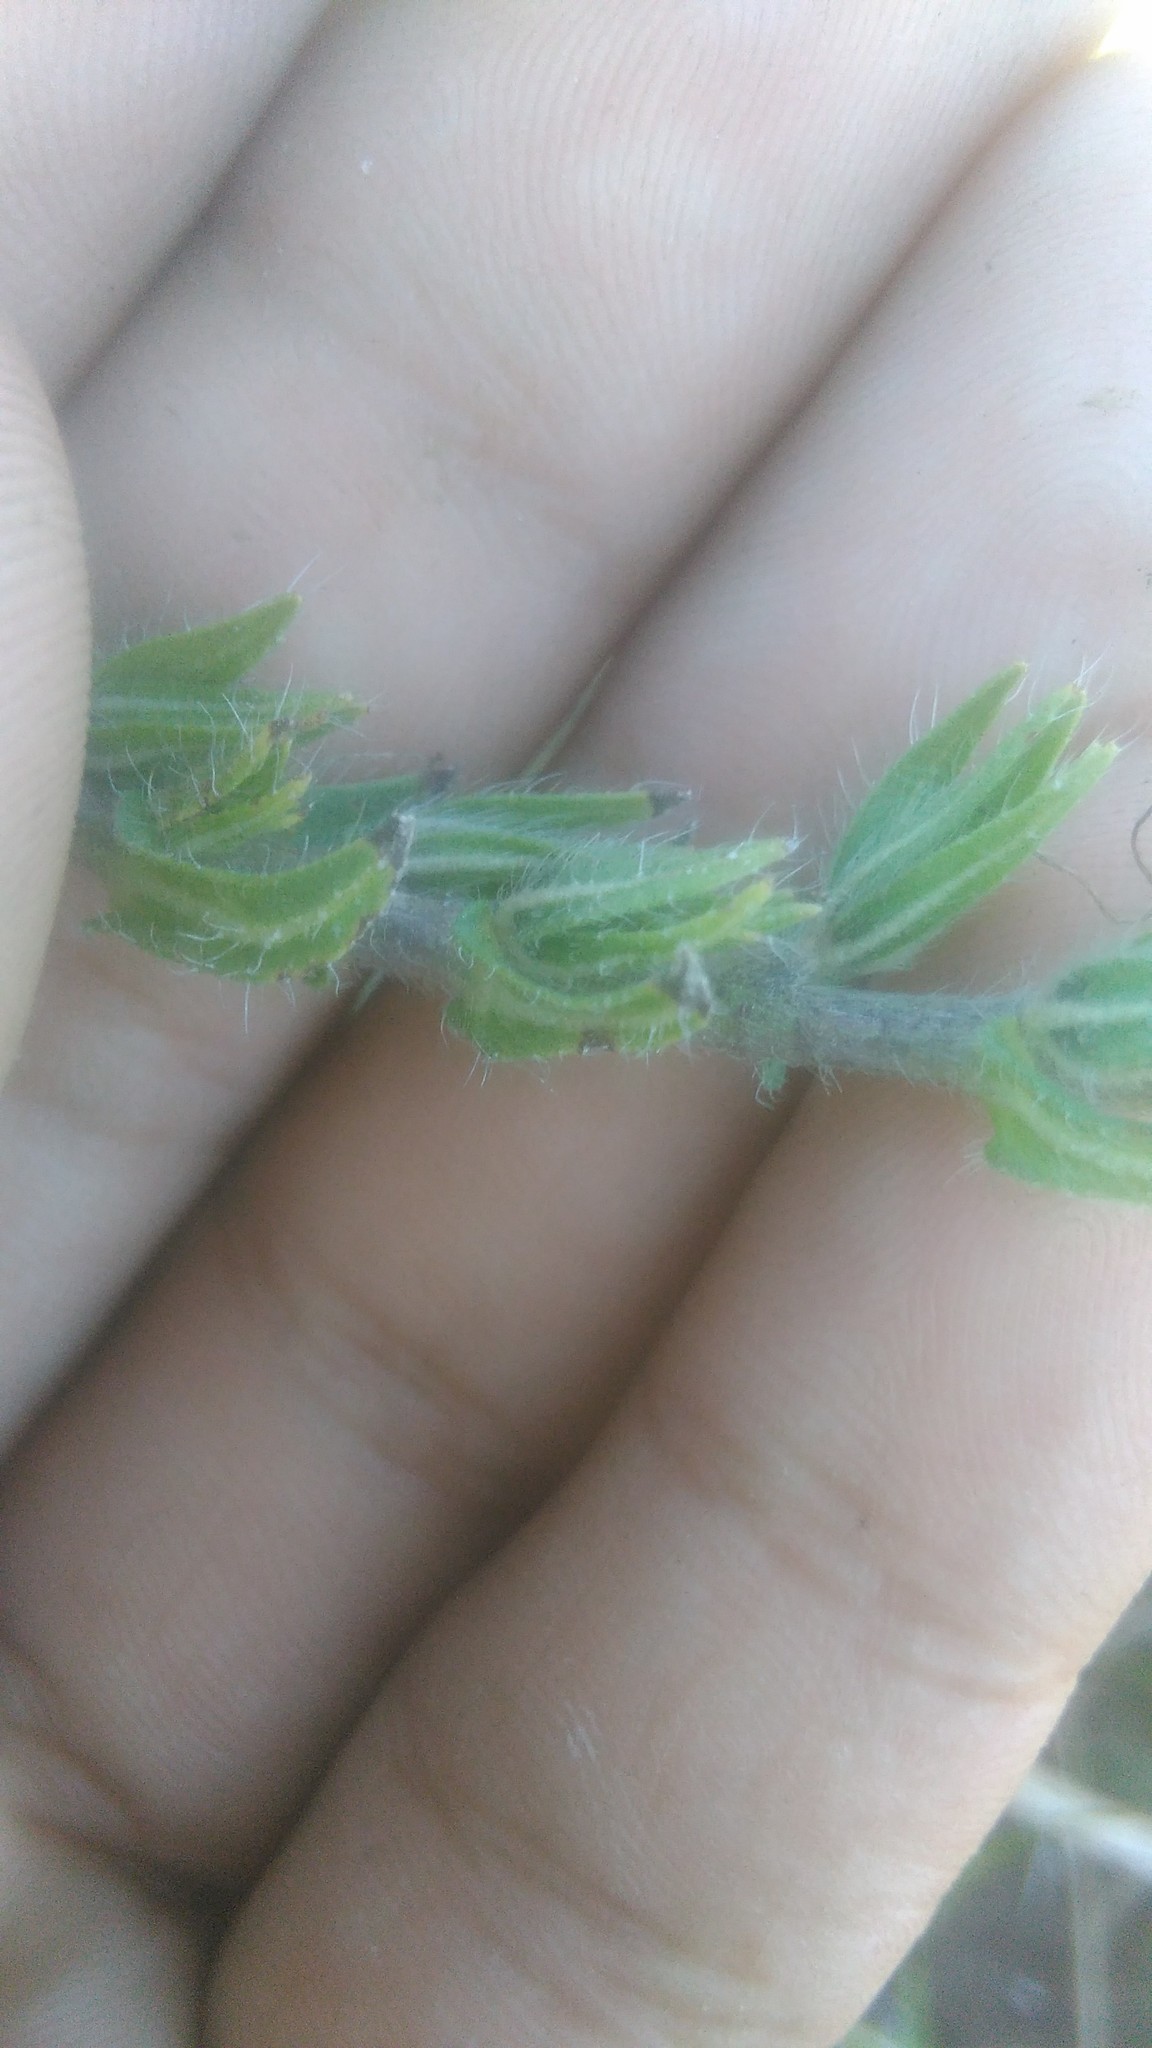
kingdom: Plantae
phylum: Tracheophyta
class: Magnoliopsida
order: Boraginales
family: Boraginaceae
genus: Echium
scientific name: Echium plantagineum
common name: Purple viper's-bugloss
